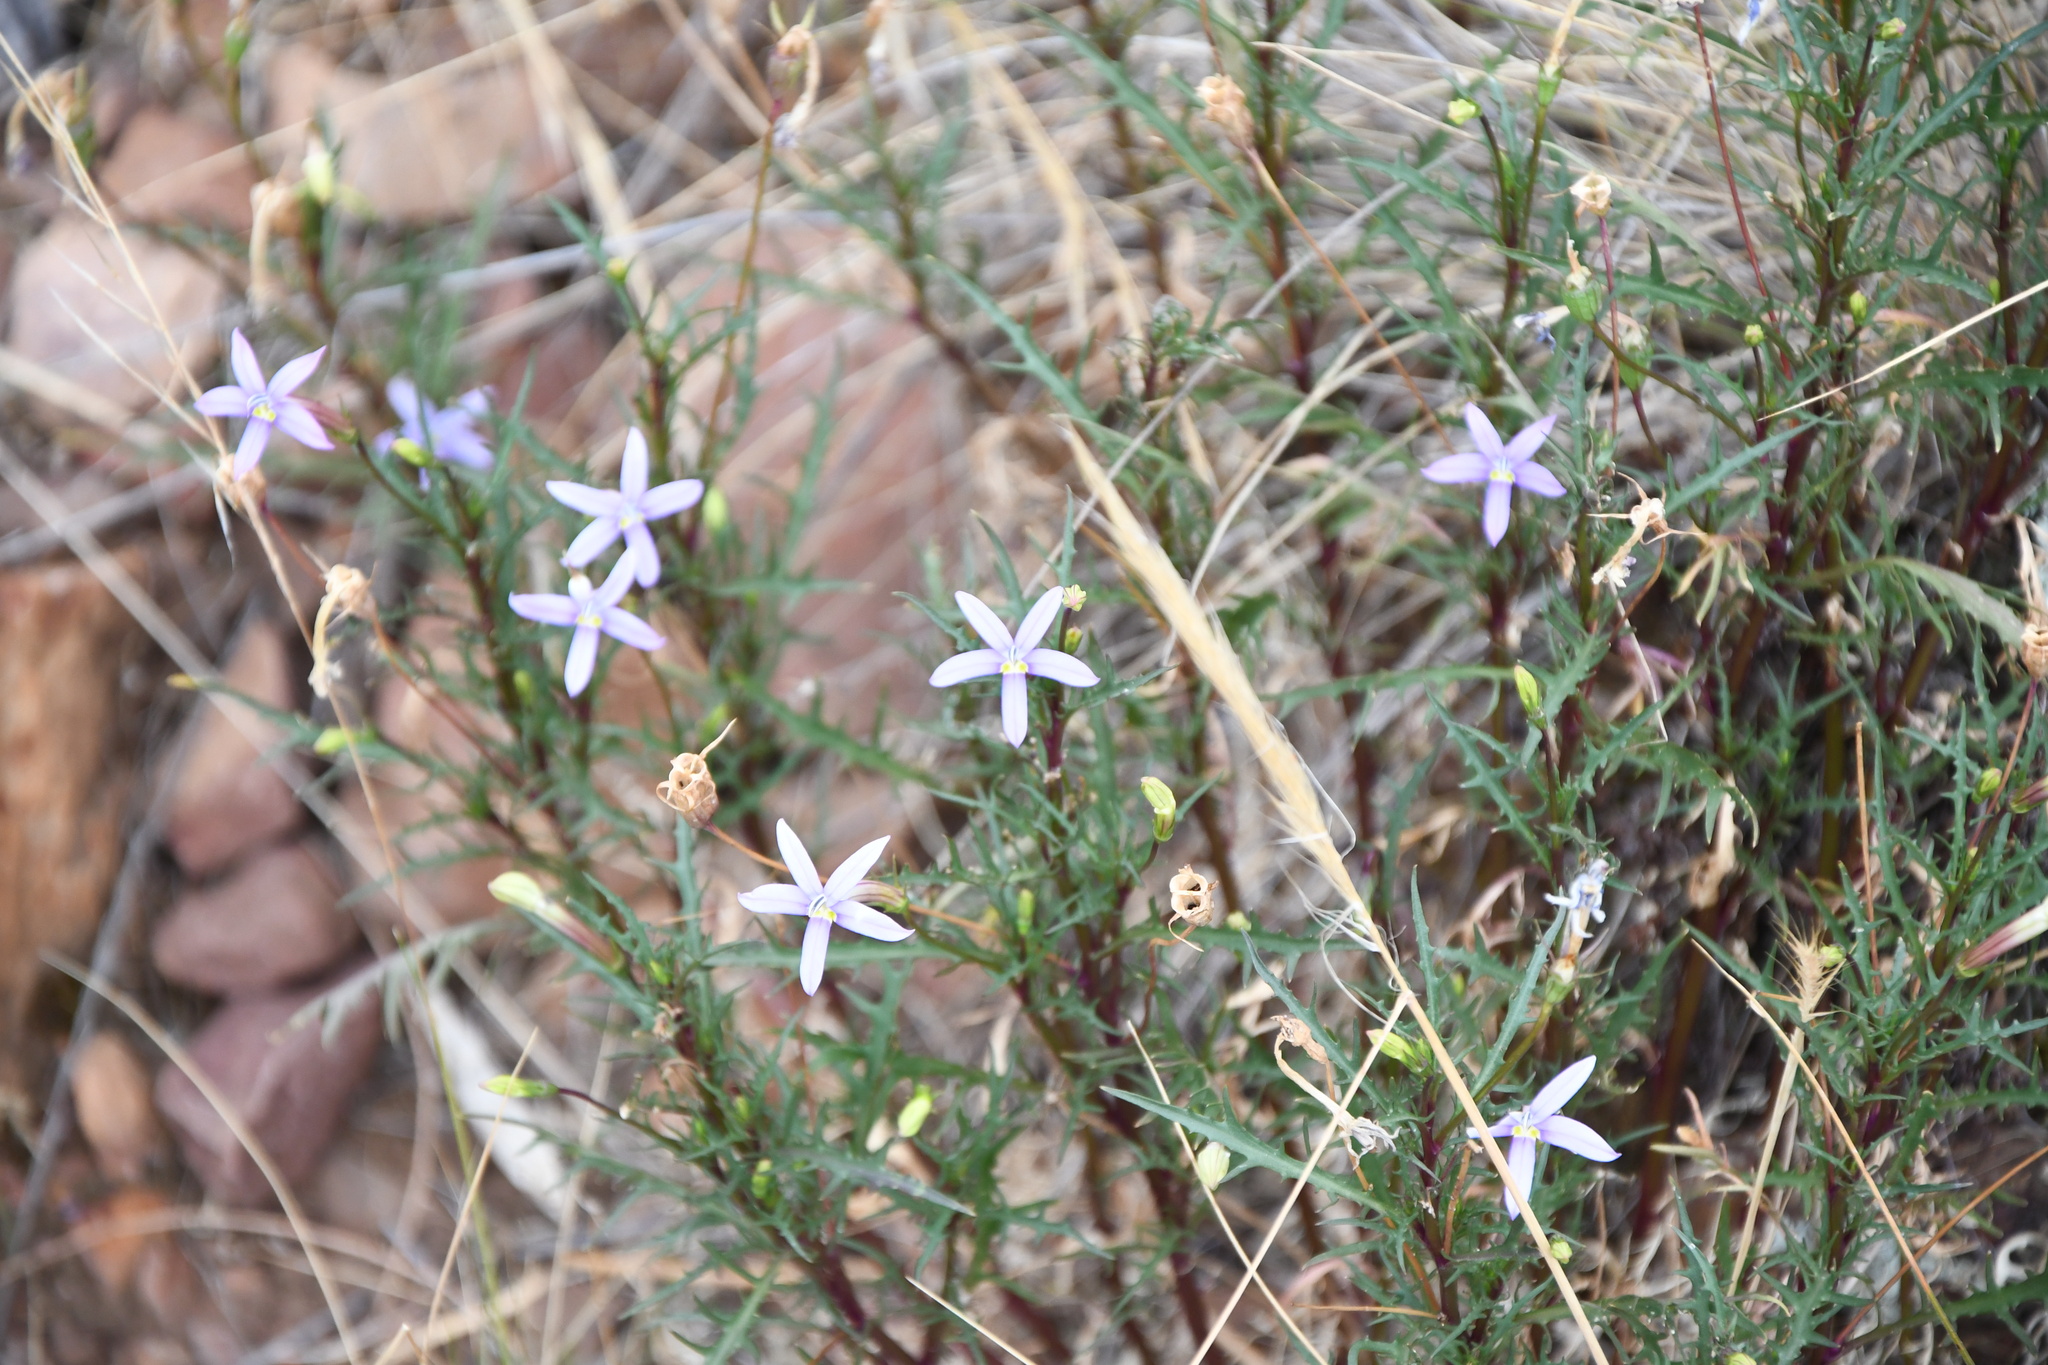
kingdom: Plantae
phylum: Tracheophyta
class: Magnoliopsida
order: Asterales
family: Campanulaceae
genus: Lithotoma
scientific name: Lithotoma axillaris
